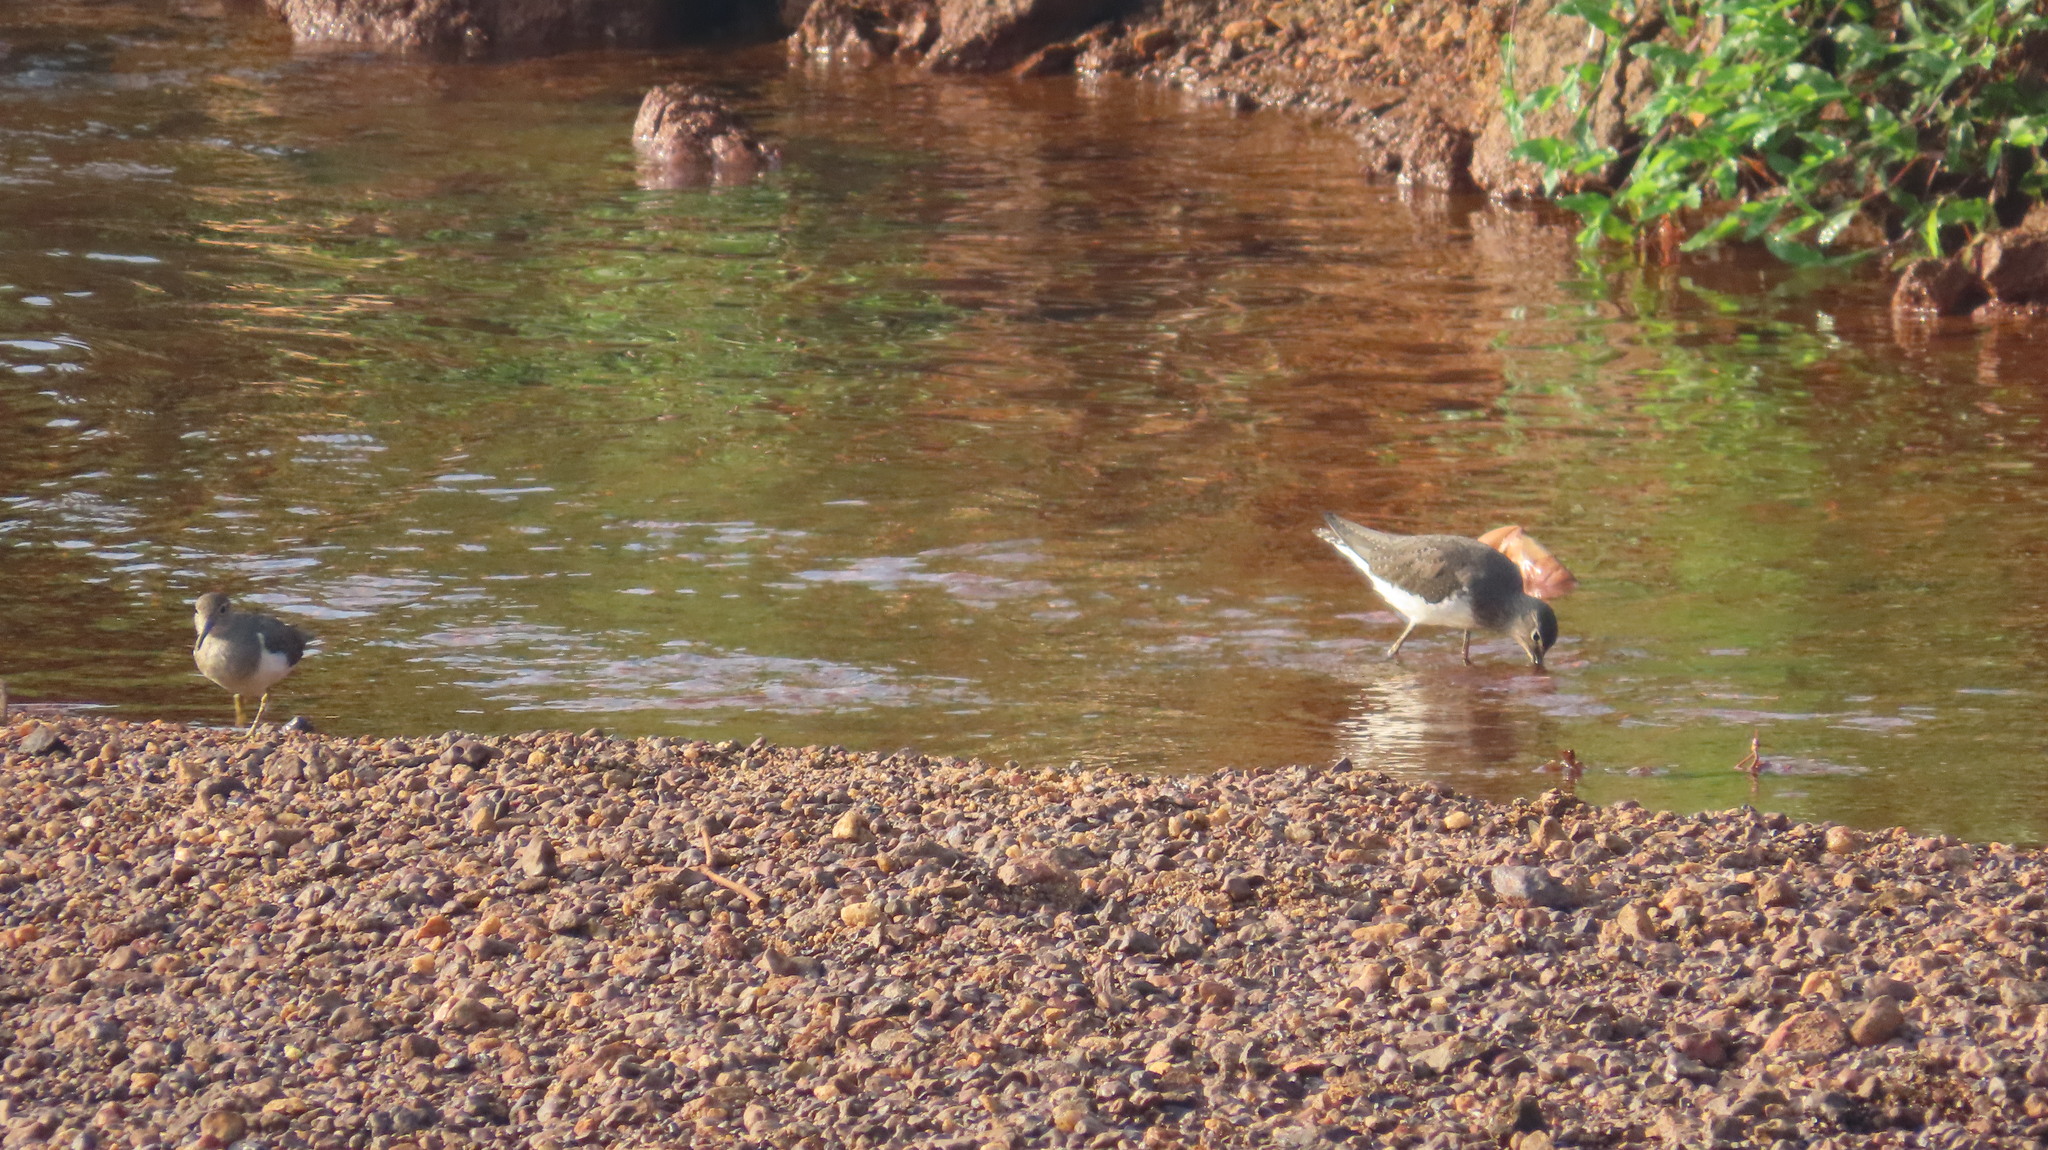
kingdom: Animalia
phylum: Chordata
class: Aves
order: Charadriiformes
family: Scolopacidae
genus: Tringa
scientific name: Tringa ochropus
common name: Green sandpiper
